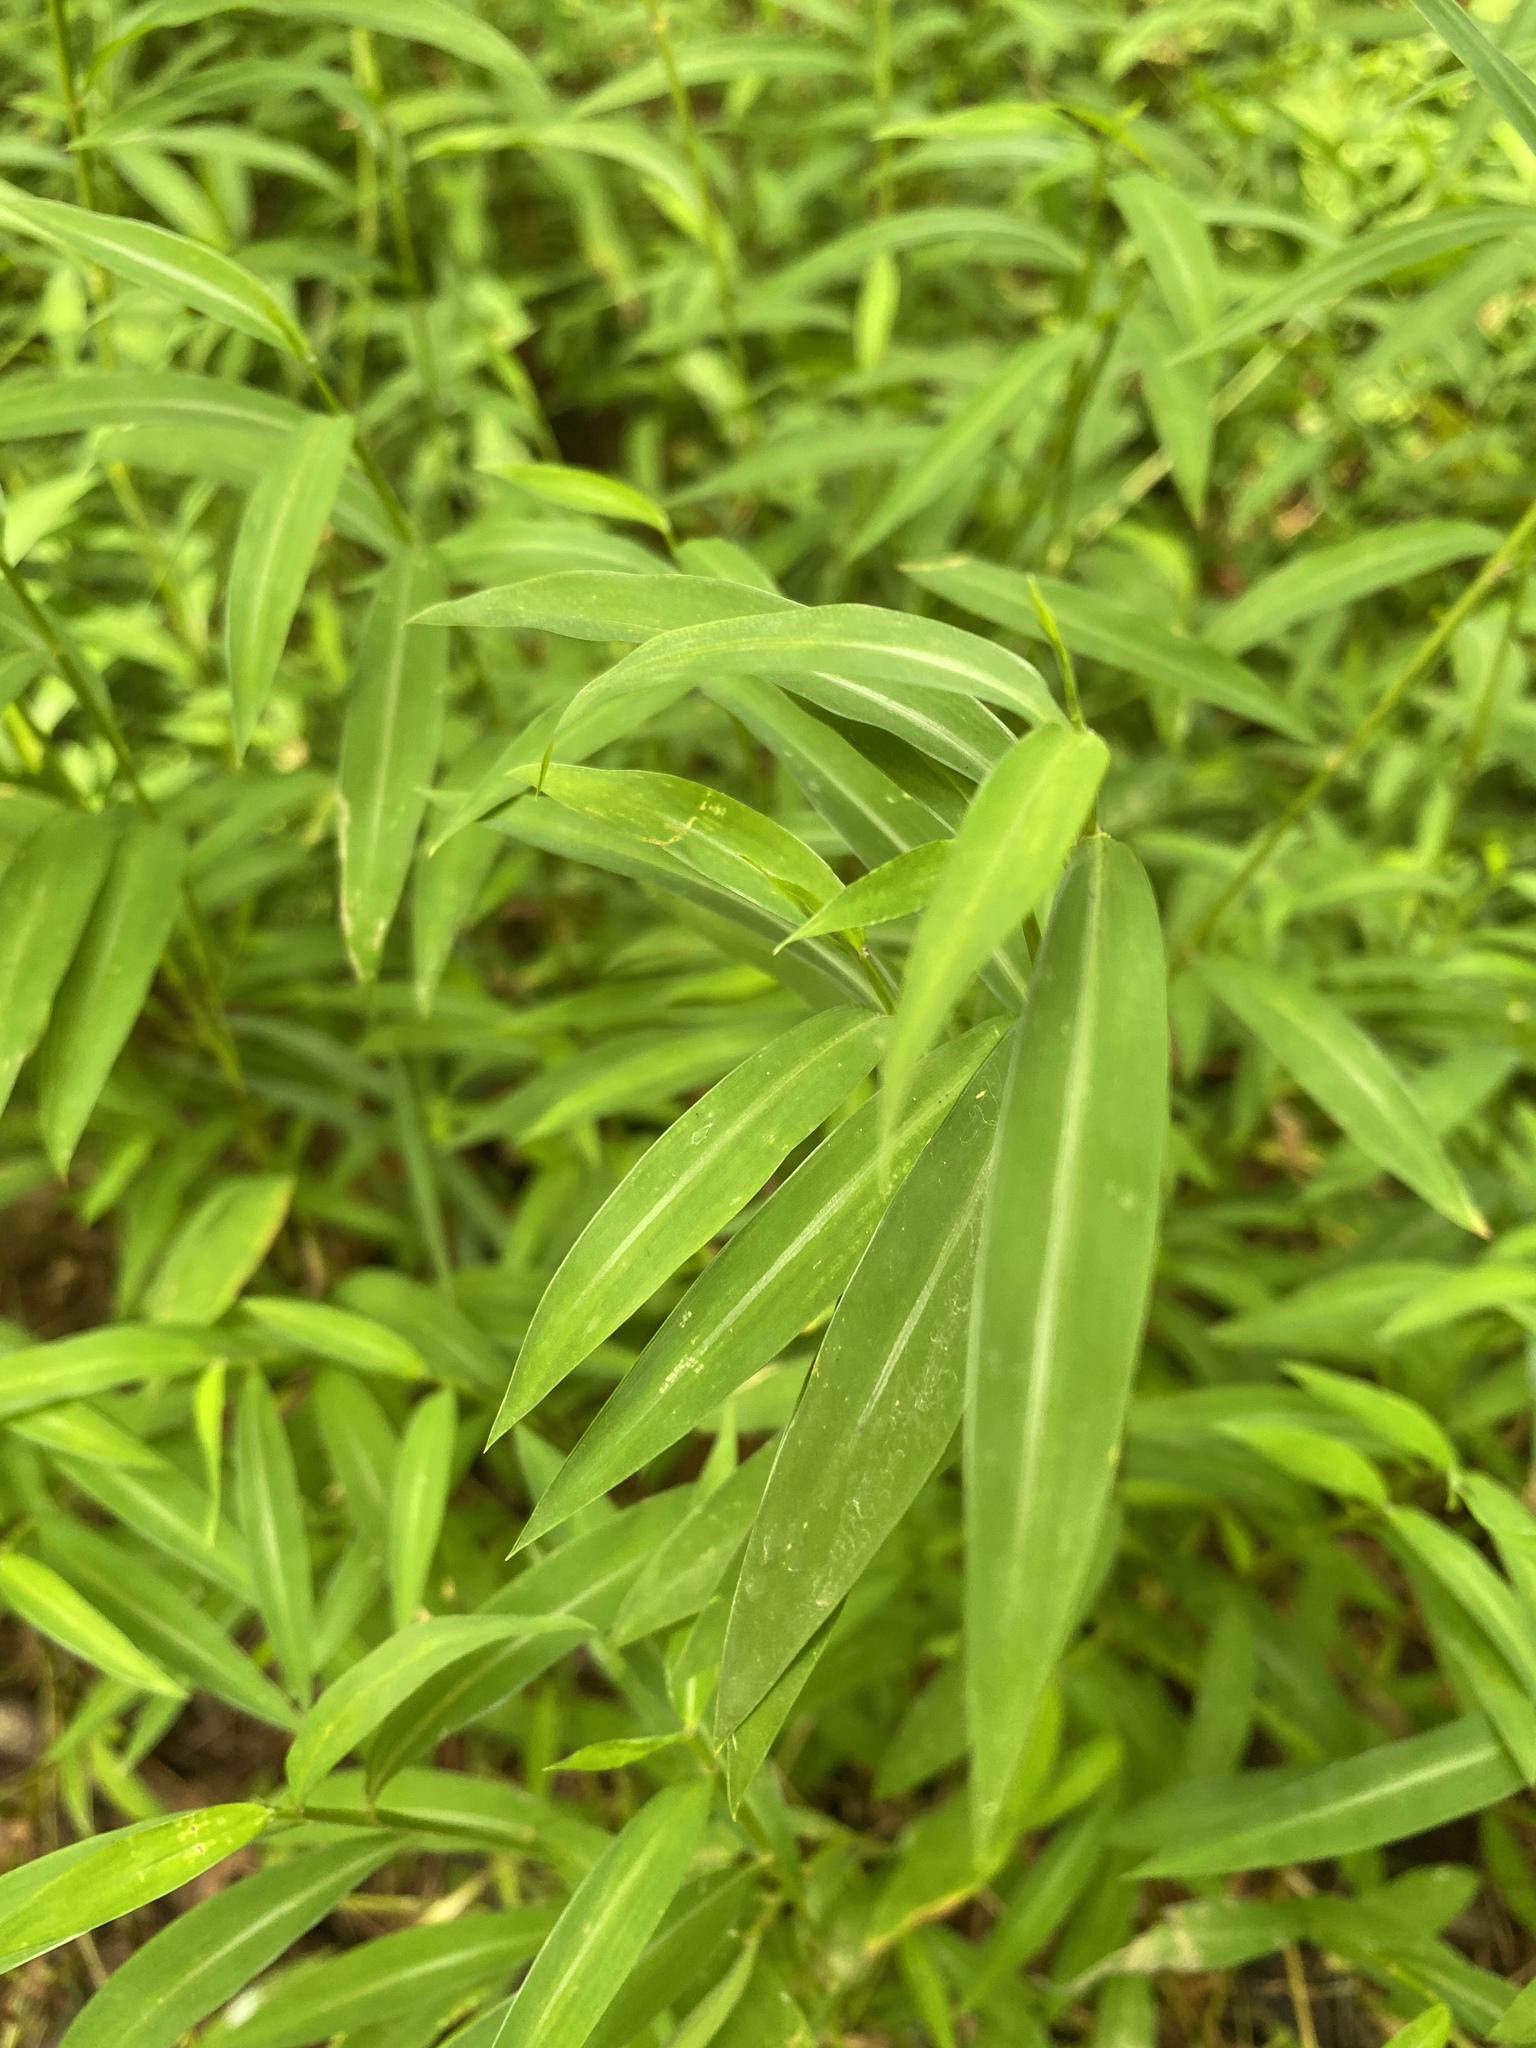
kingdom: Plantae
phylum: Tracheophyta
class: Liliopsida
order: Poales
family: Poaceae
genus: Microstegium
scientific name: Microstegium vimineum
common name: Japanese stiltgrass
